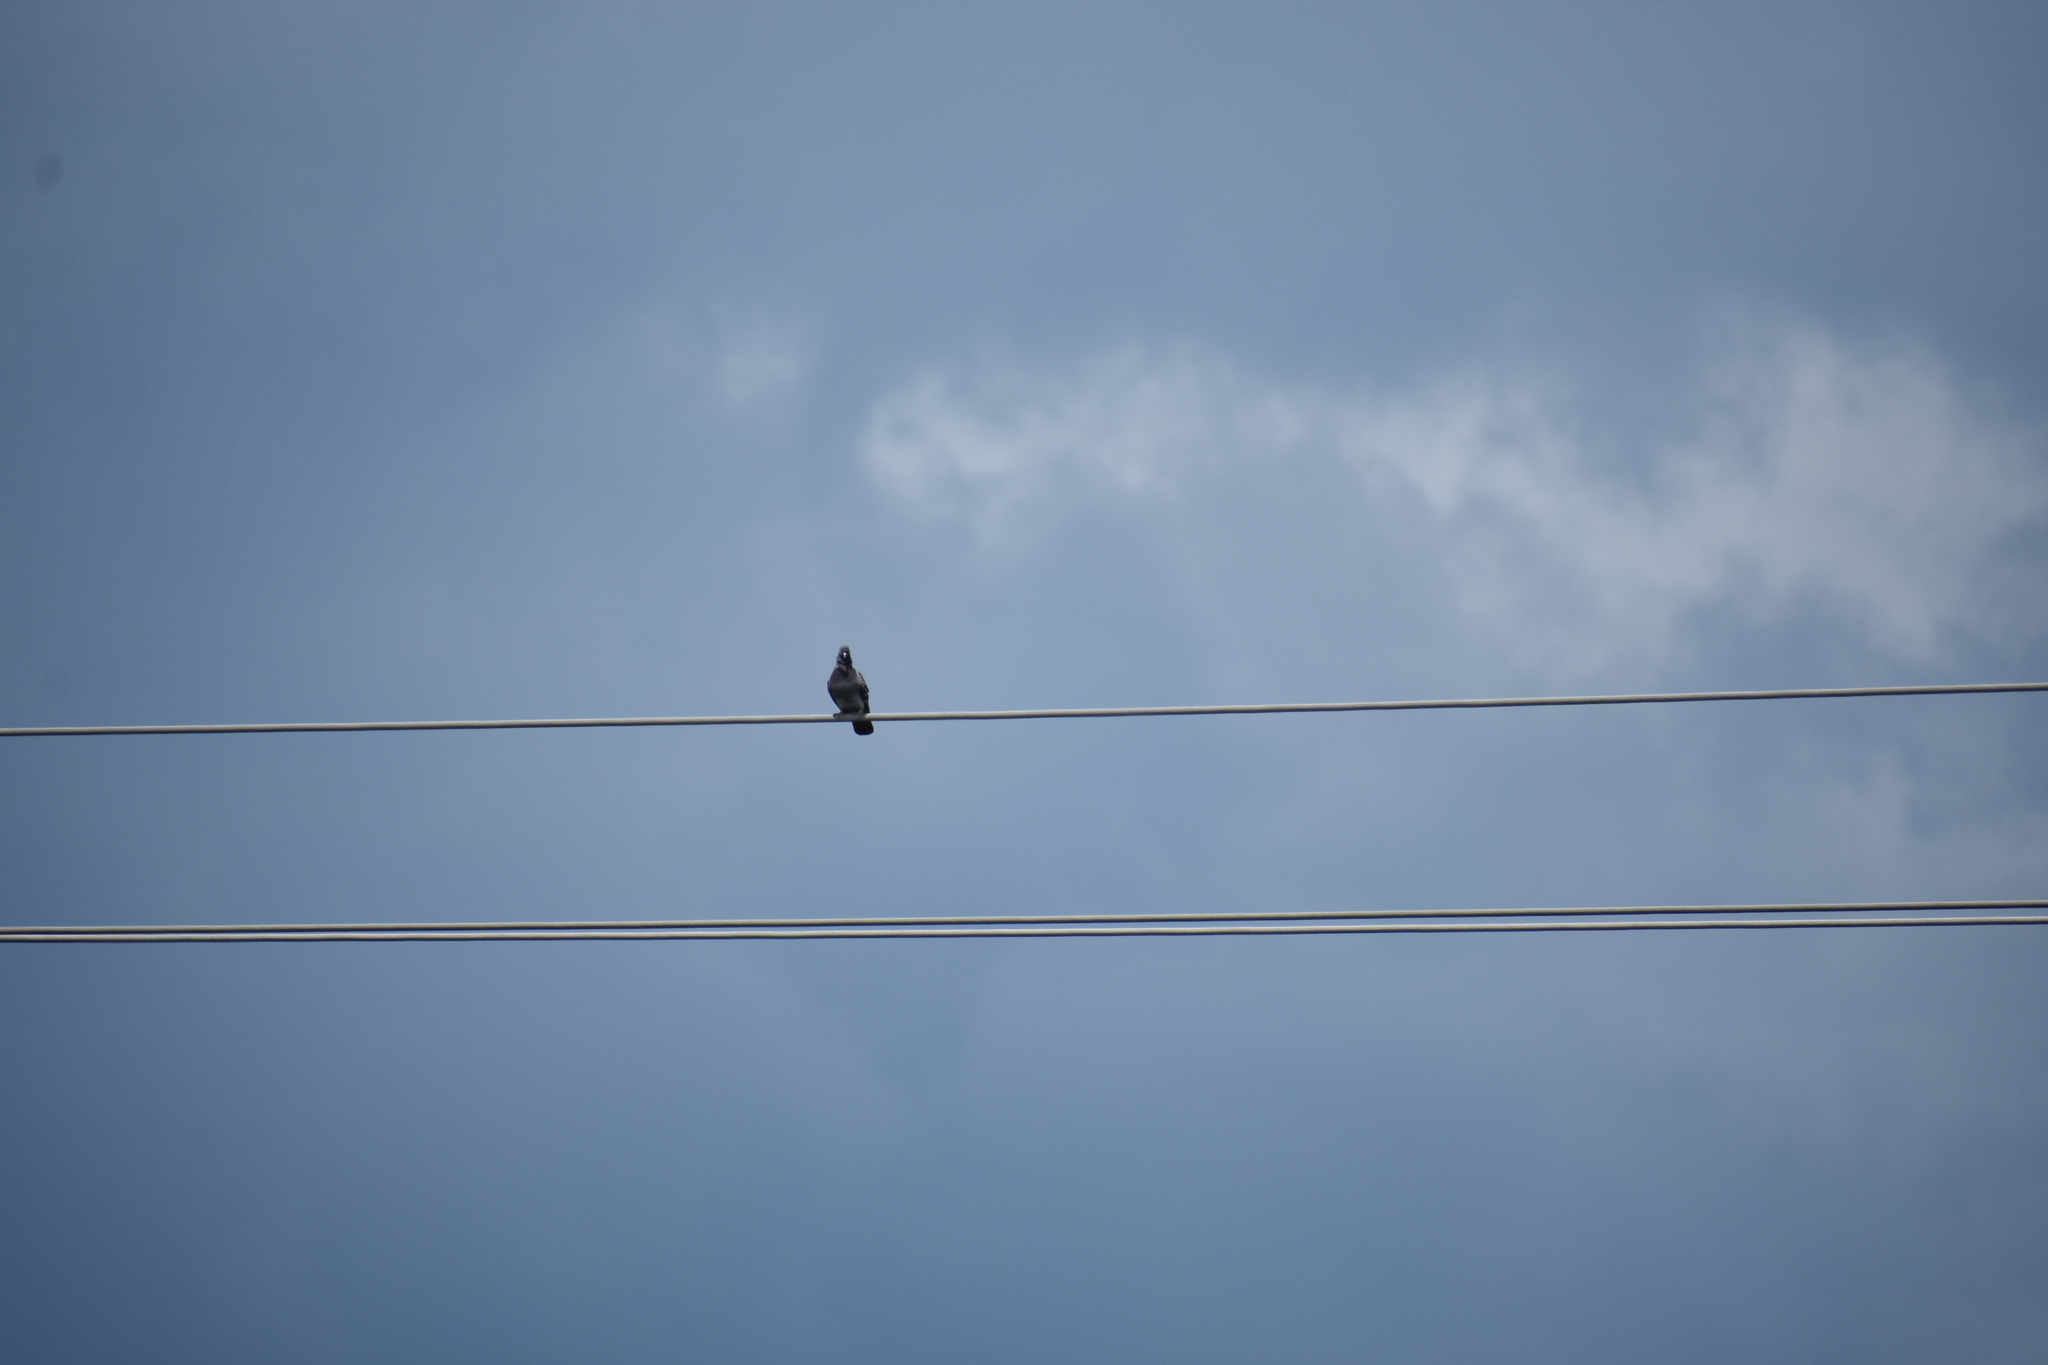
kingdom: Animalia
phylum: Chordata
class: Aves
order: Columbiformes
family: Columbidae
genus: Columba
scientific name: Columba livia
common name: Rock pigeon
